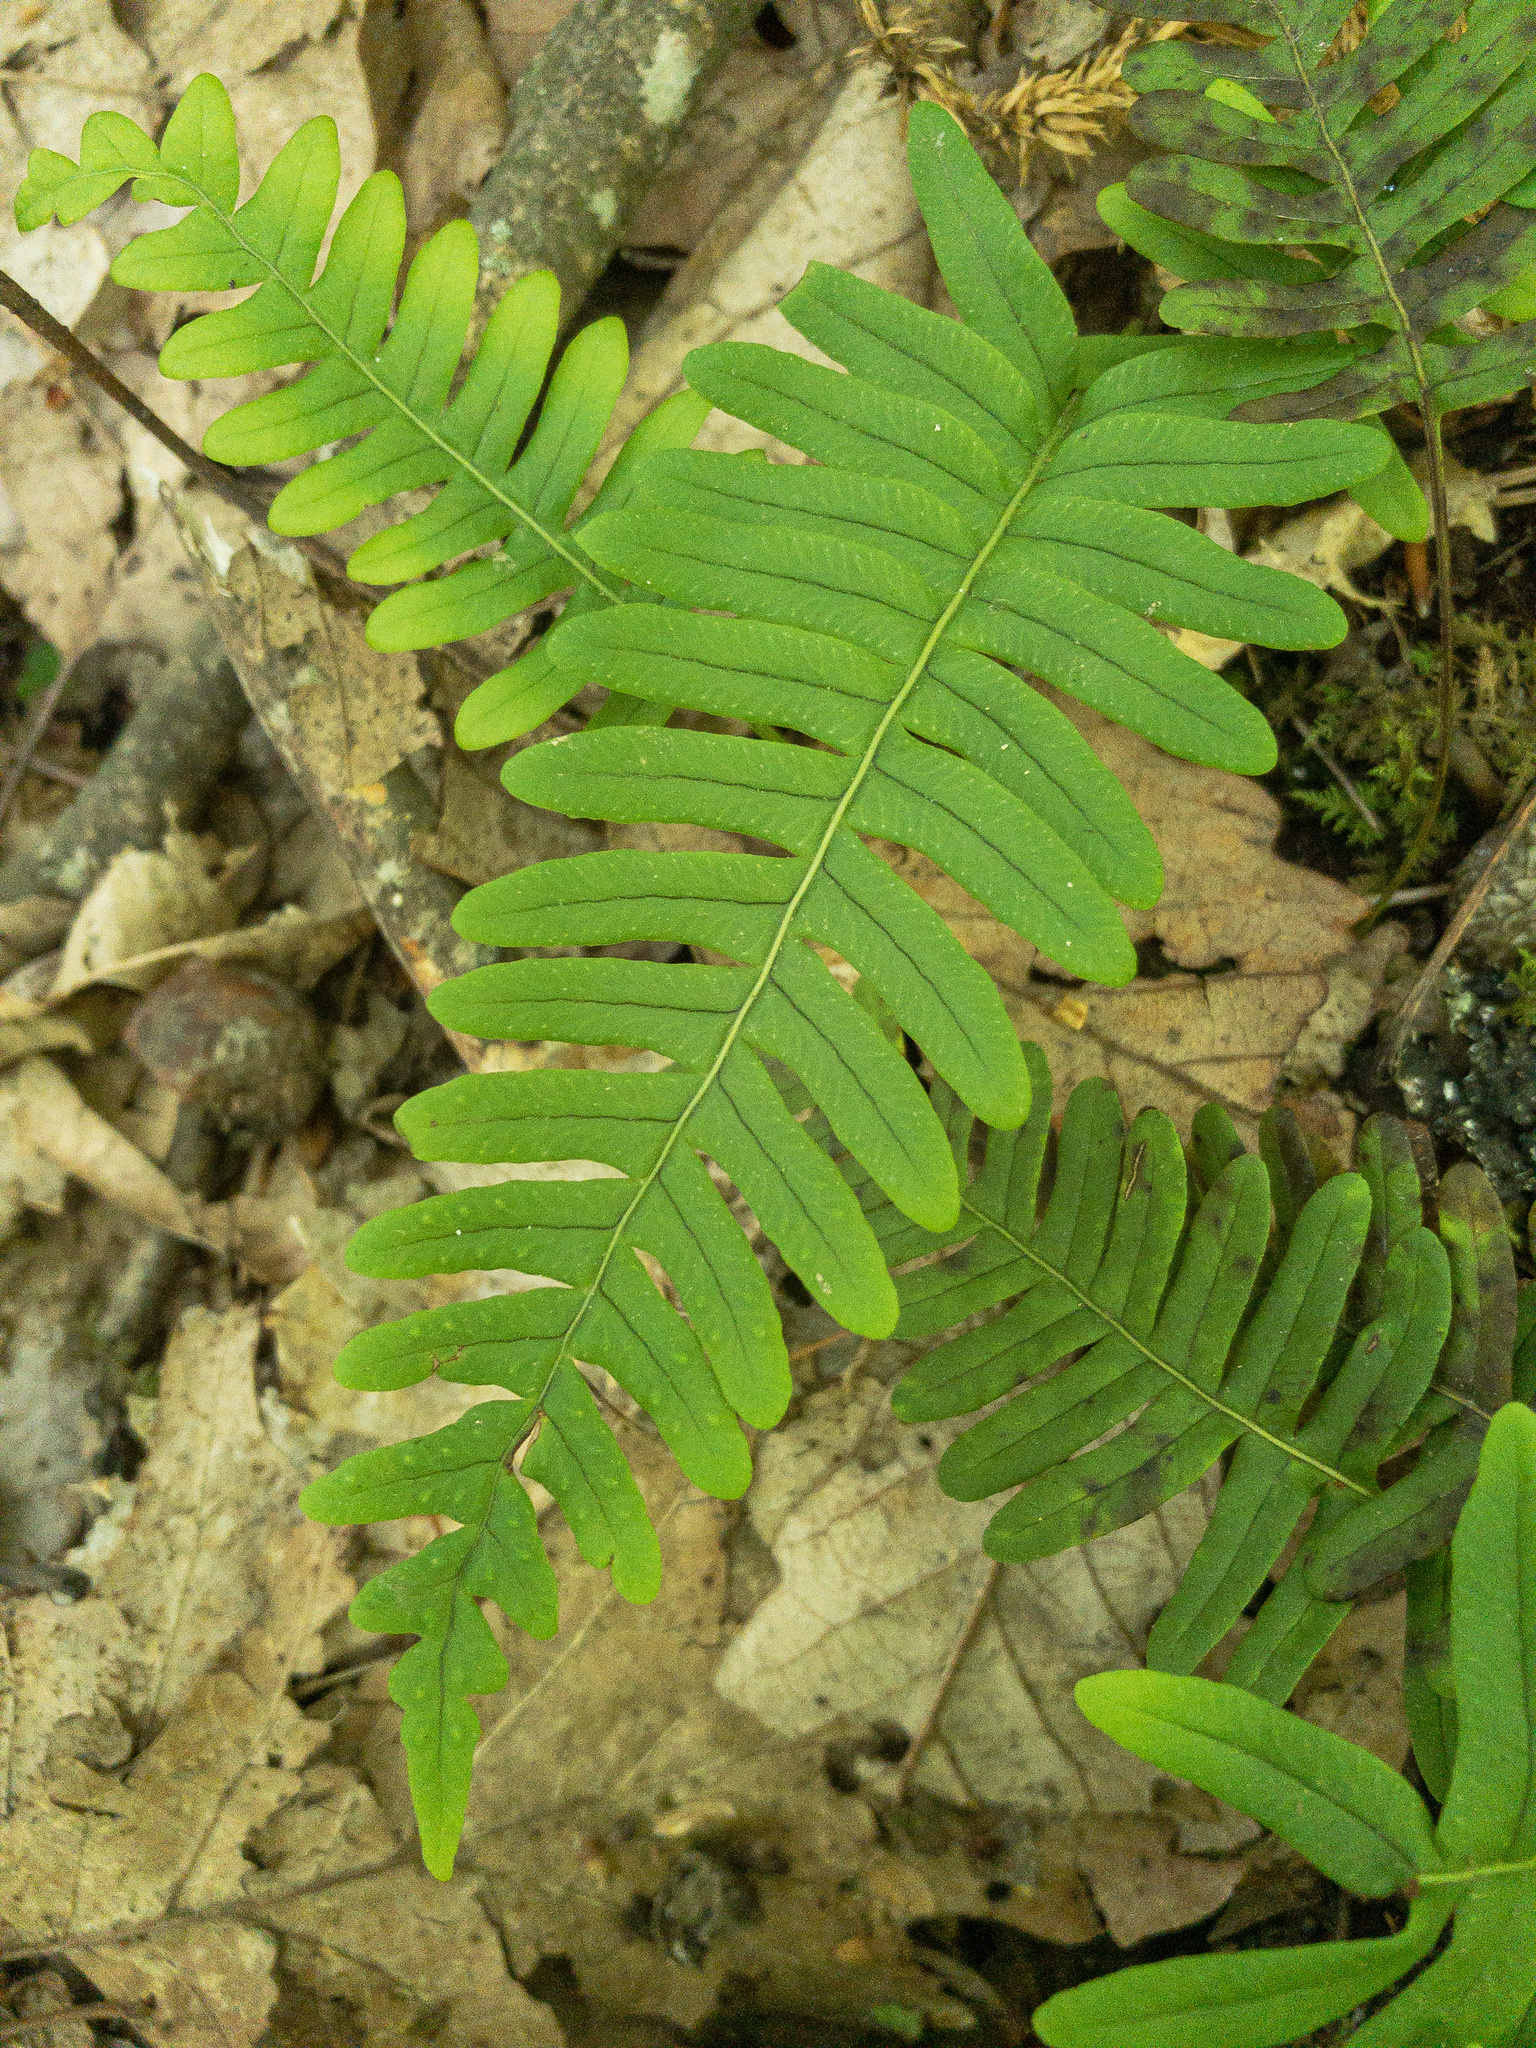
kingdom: Plantae
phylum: Tracheophyta
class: Polypodiopsida
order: Polypodiales
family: Polypodiaceae
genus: Polypodium
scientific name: Polypodium appalachianum
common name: Appalachian polypody
